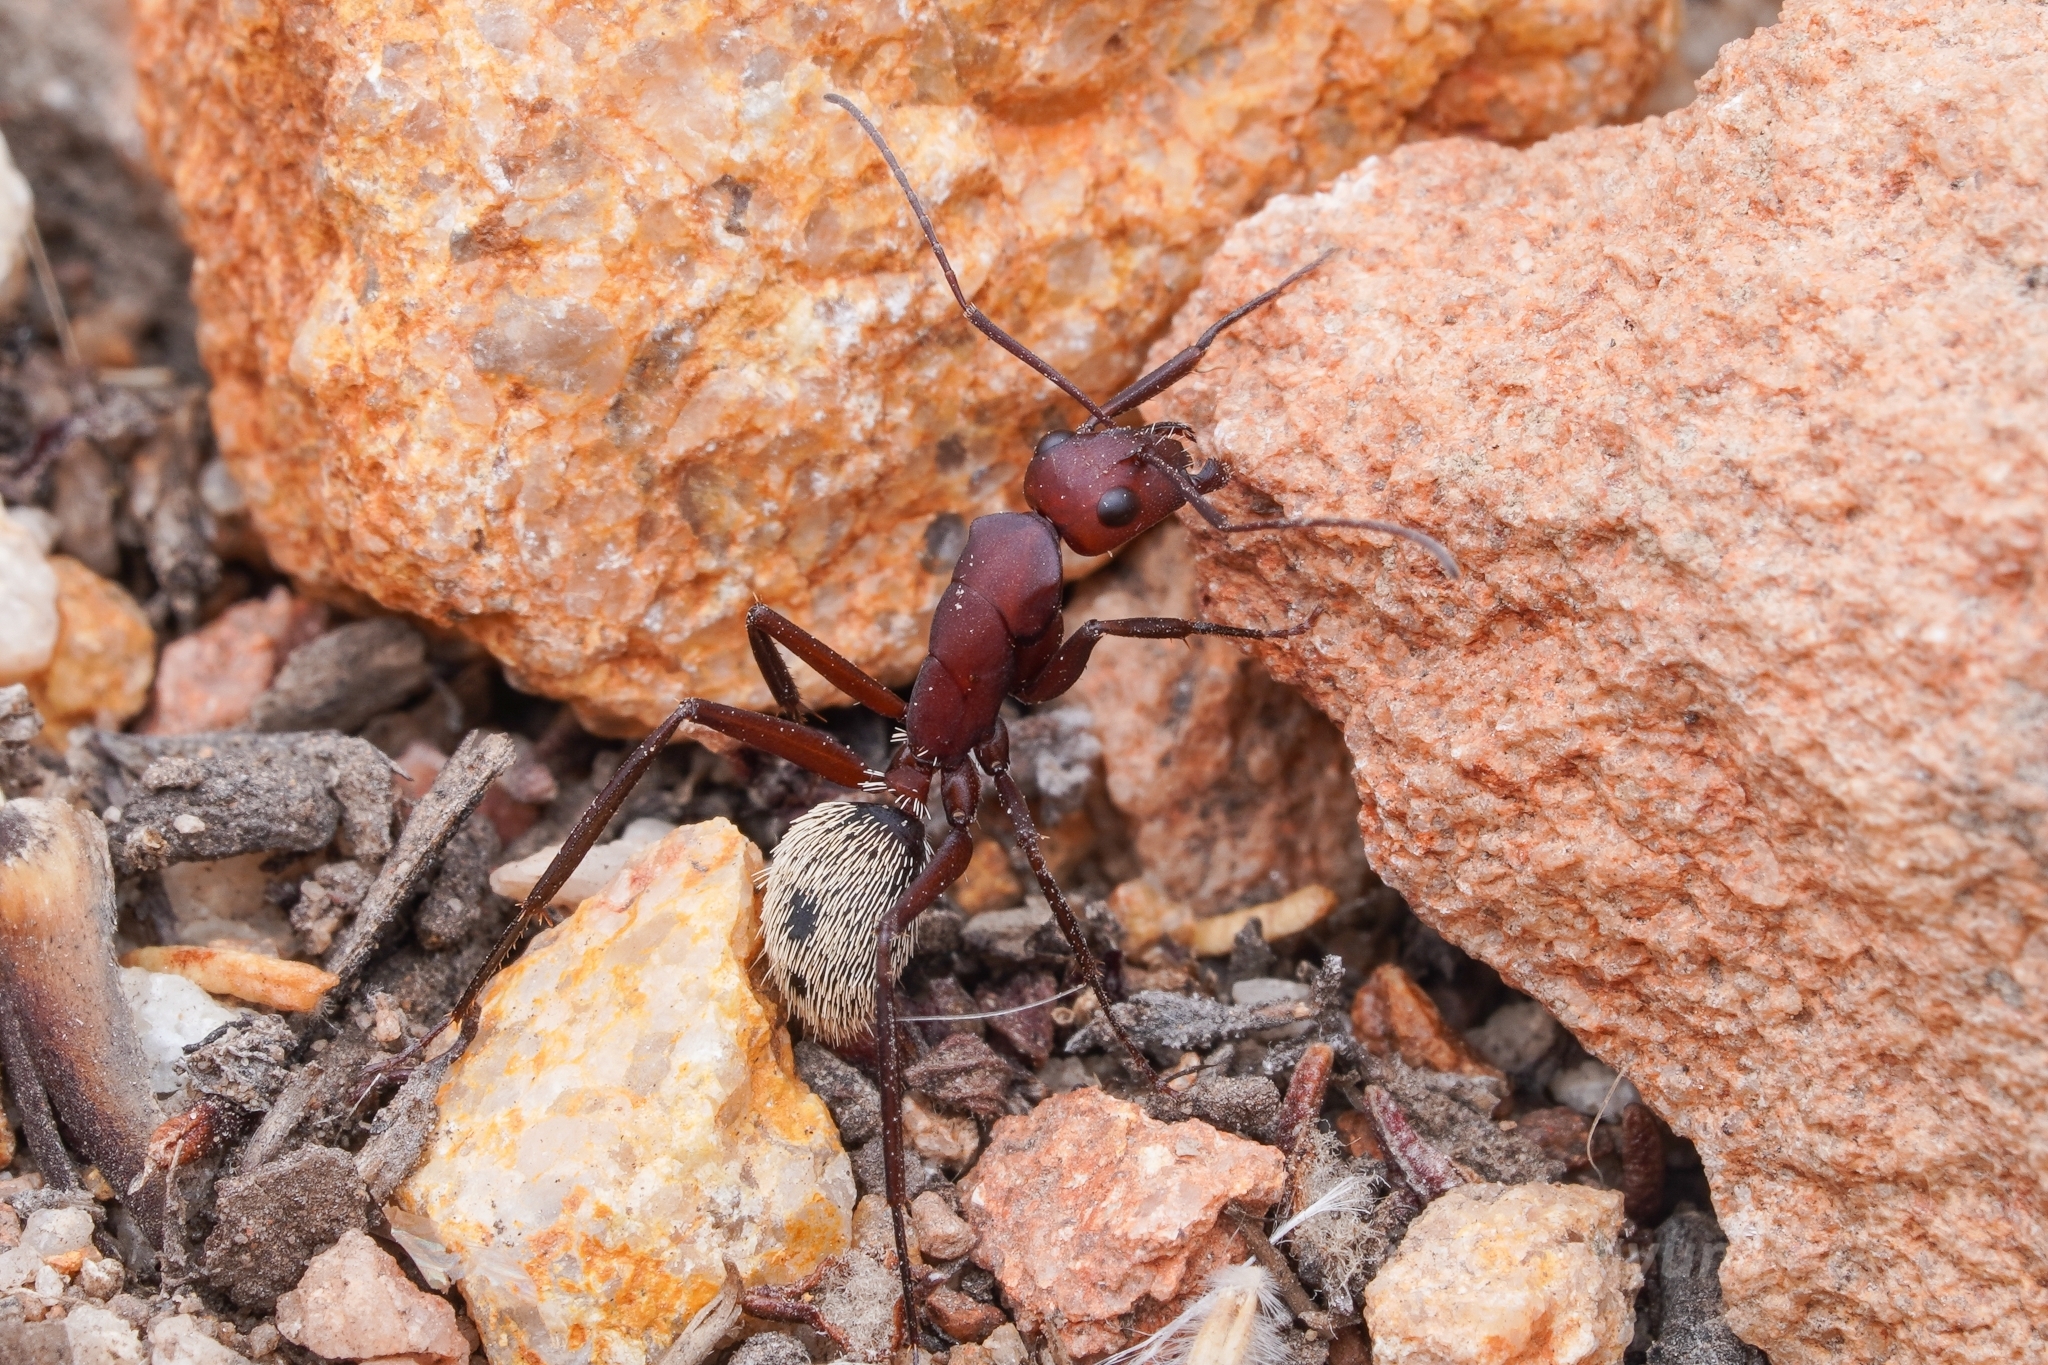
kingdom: Animalia
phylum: Arthropoda
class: Insecta
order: Hymenoptera
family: Formicidae
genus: Camponotus
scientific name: Camponotus storeatus
